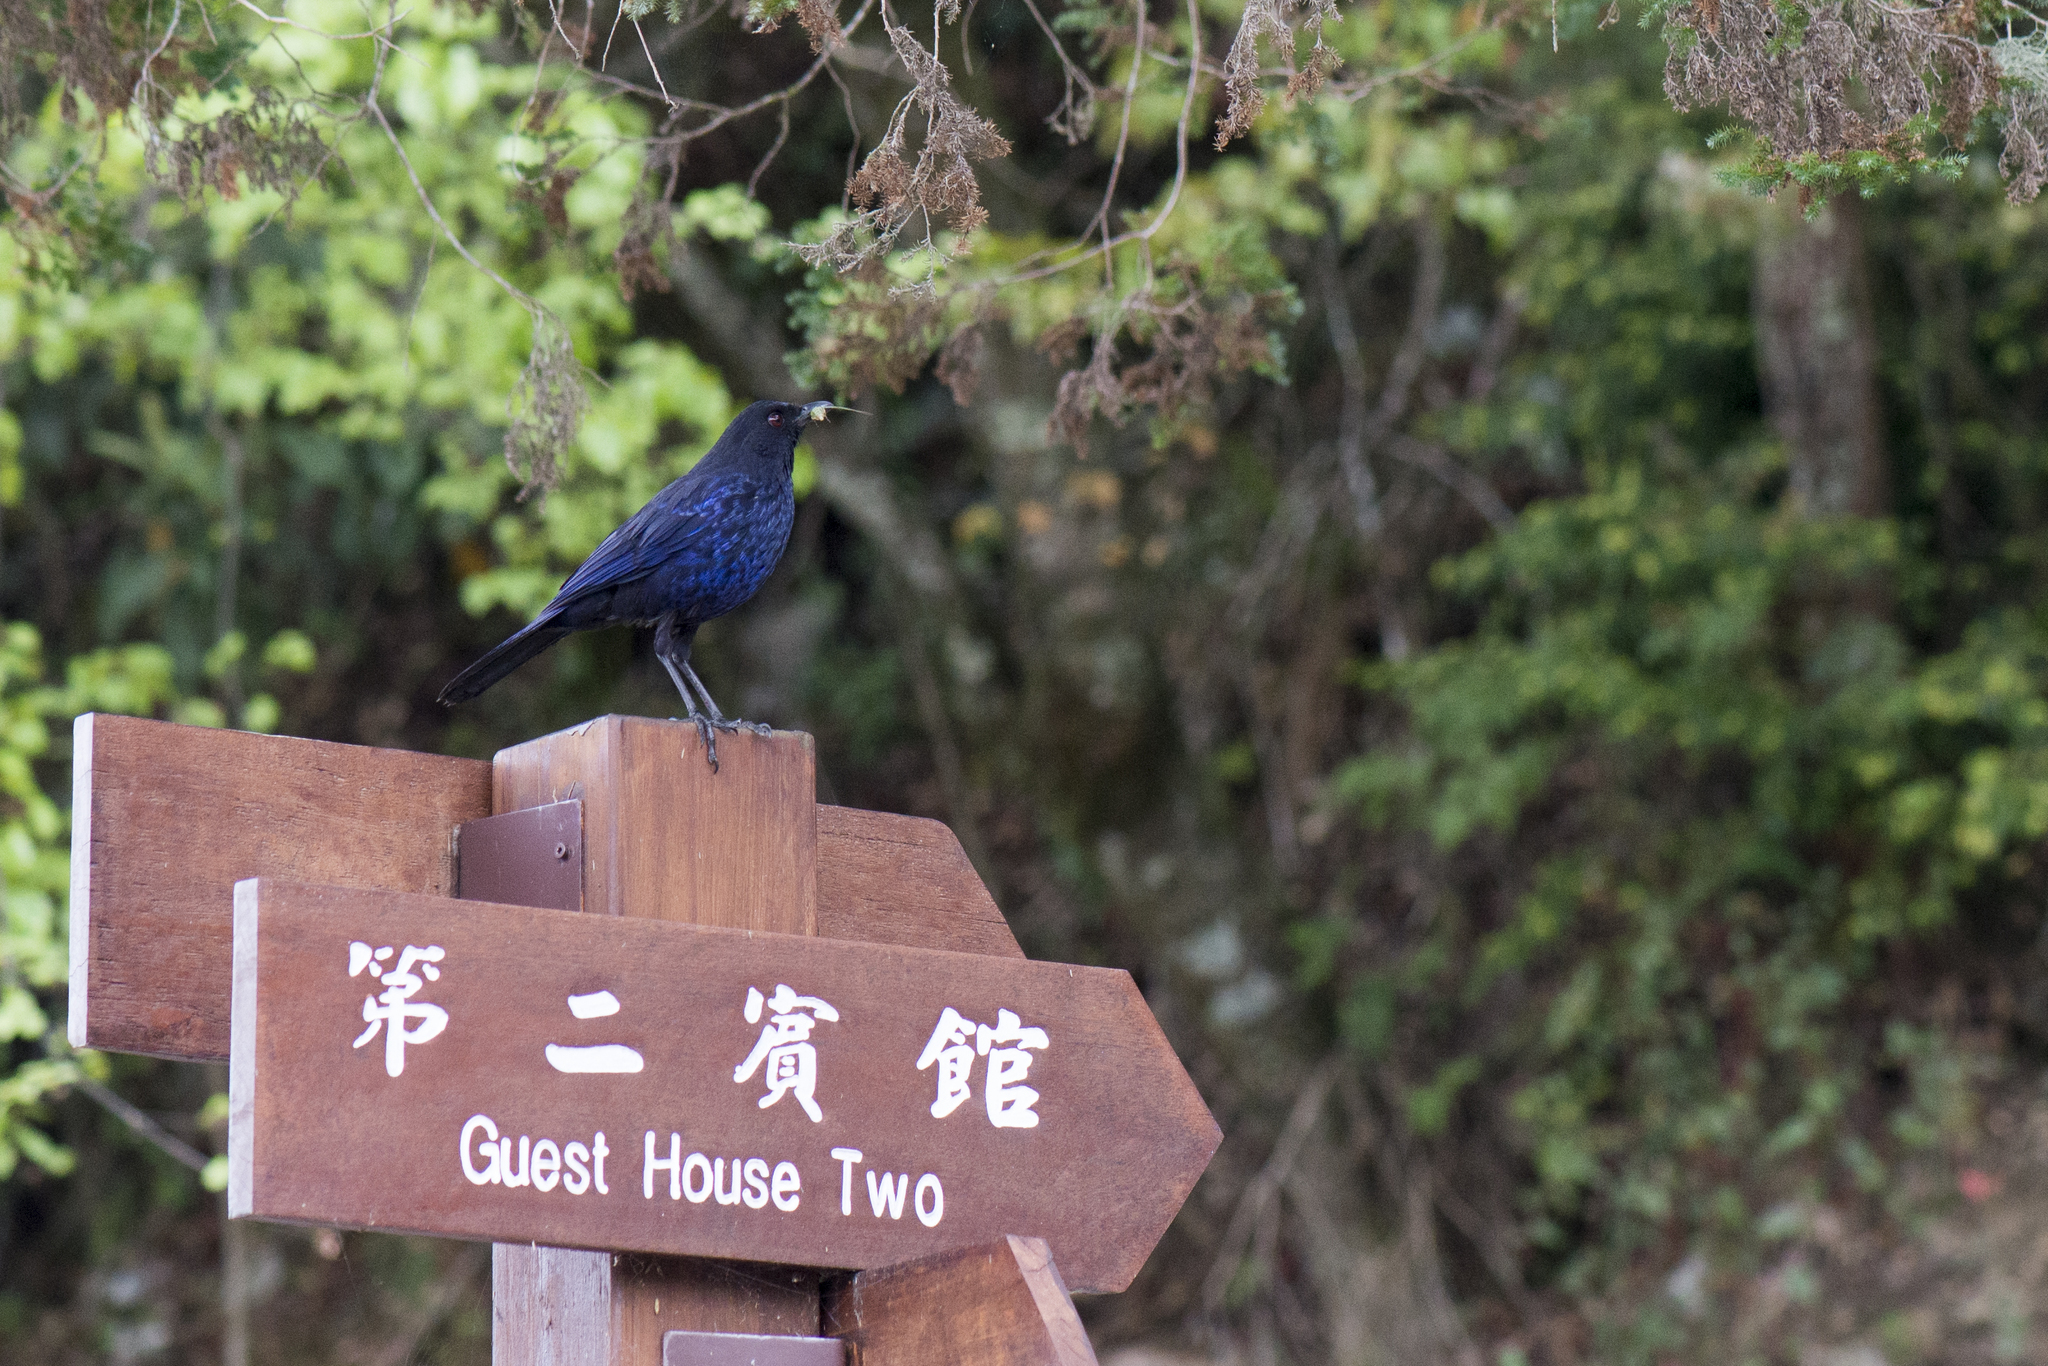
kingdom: Animalia
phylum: Chordata
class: Aves
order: Passeriformes
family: Muscicapidae
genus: Myophonus
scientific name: Myophonus insularis
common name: Taiwan whistling-thrush
